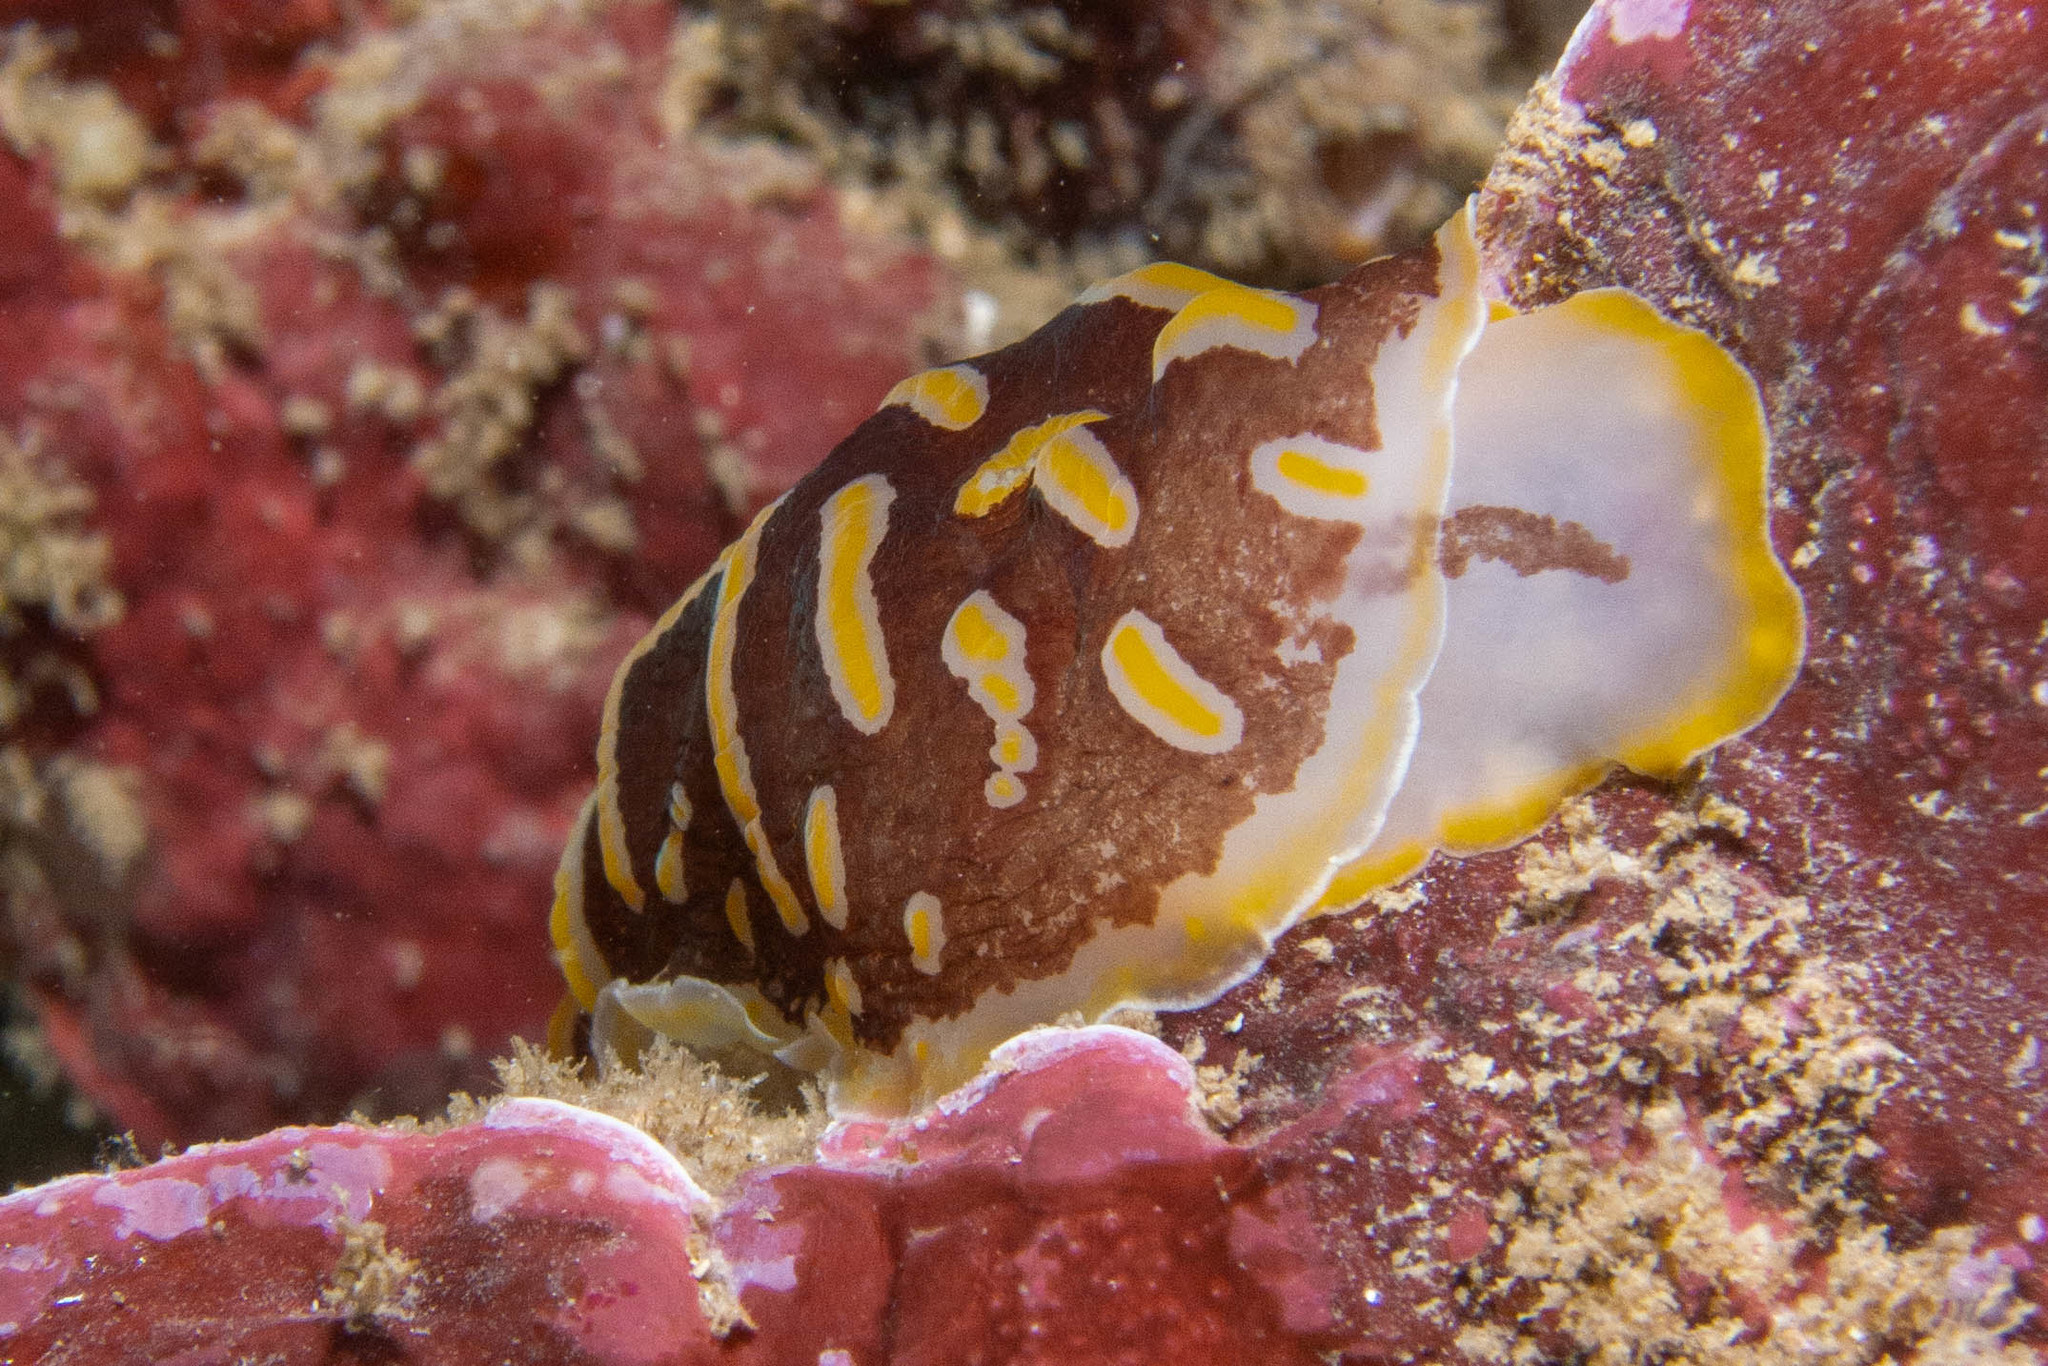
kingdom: Animalia
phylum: Mollusca
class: Gastropoda
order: Nudibranchia
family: Discodorididae
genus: Halgerda
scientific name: Halgerda theobroma
